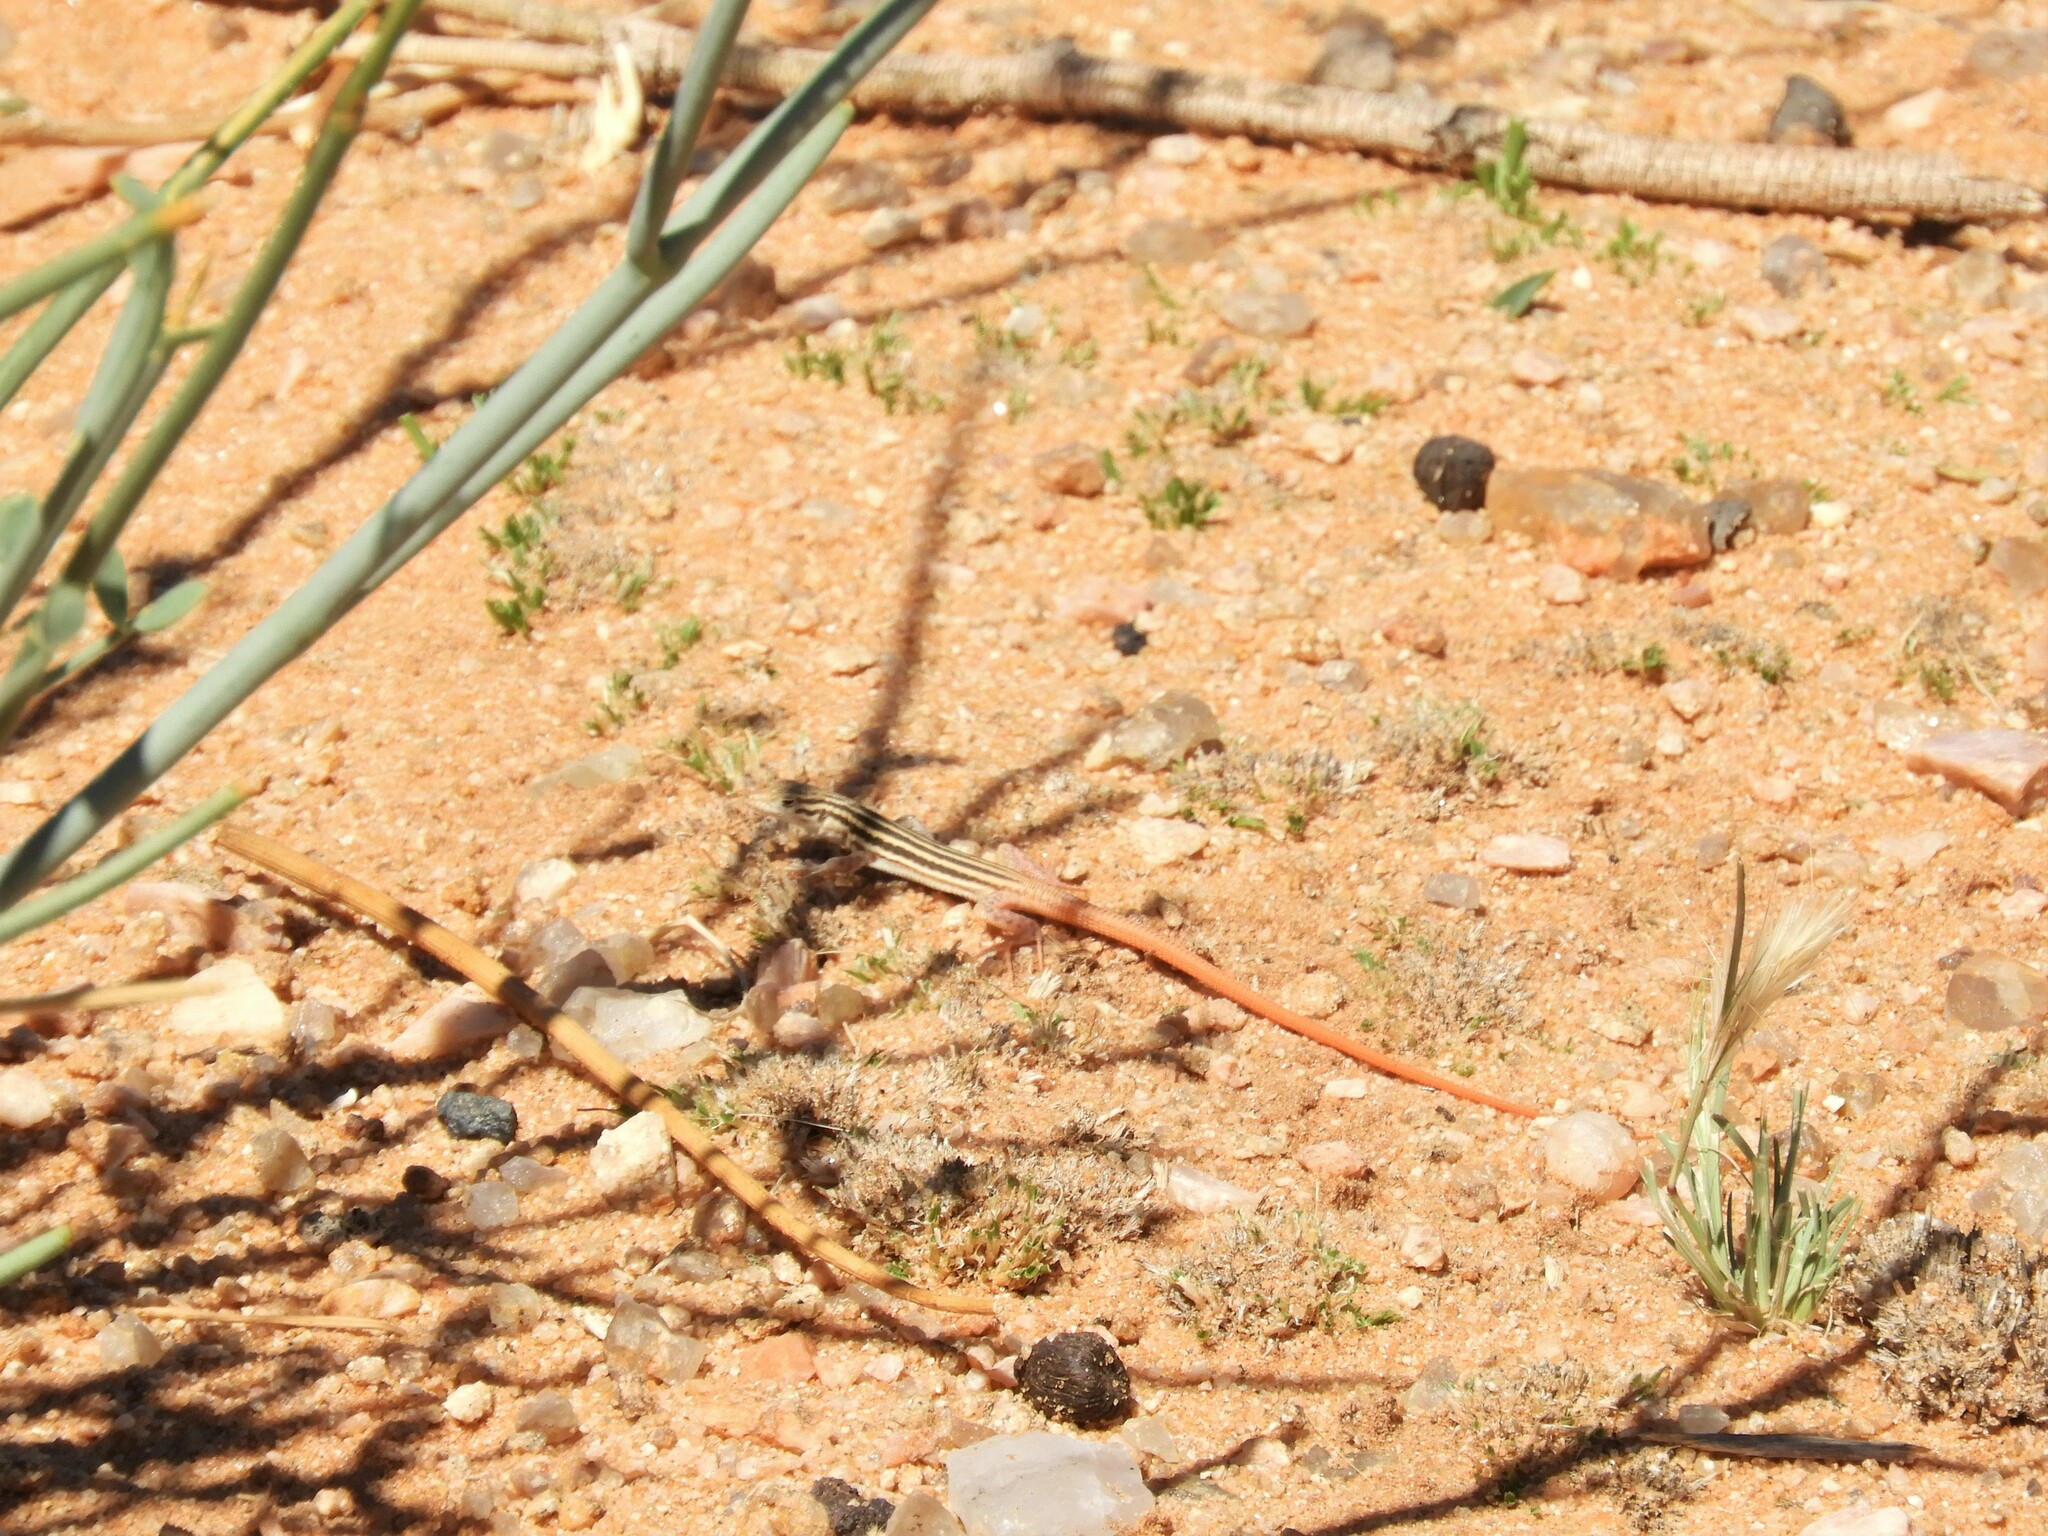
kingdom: Animalia
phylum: Chordata
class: Squamata
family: Lacertidae
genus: Pedioplanis
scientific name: Pedioplanis namaquensis
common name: Namaqua sand lizard
